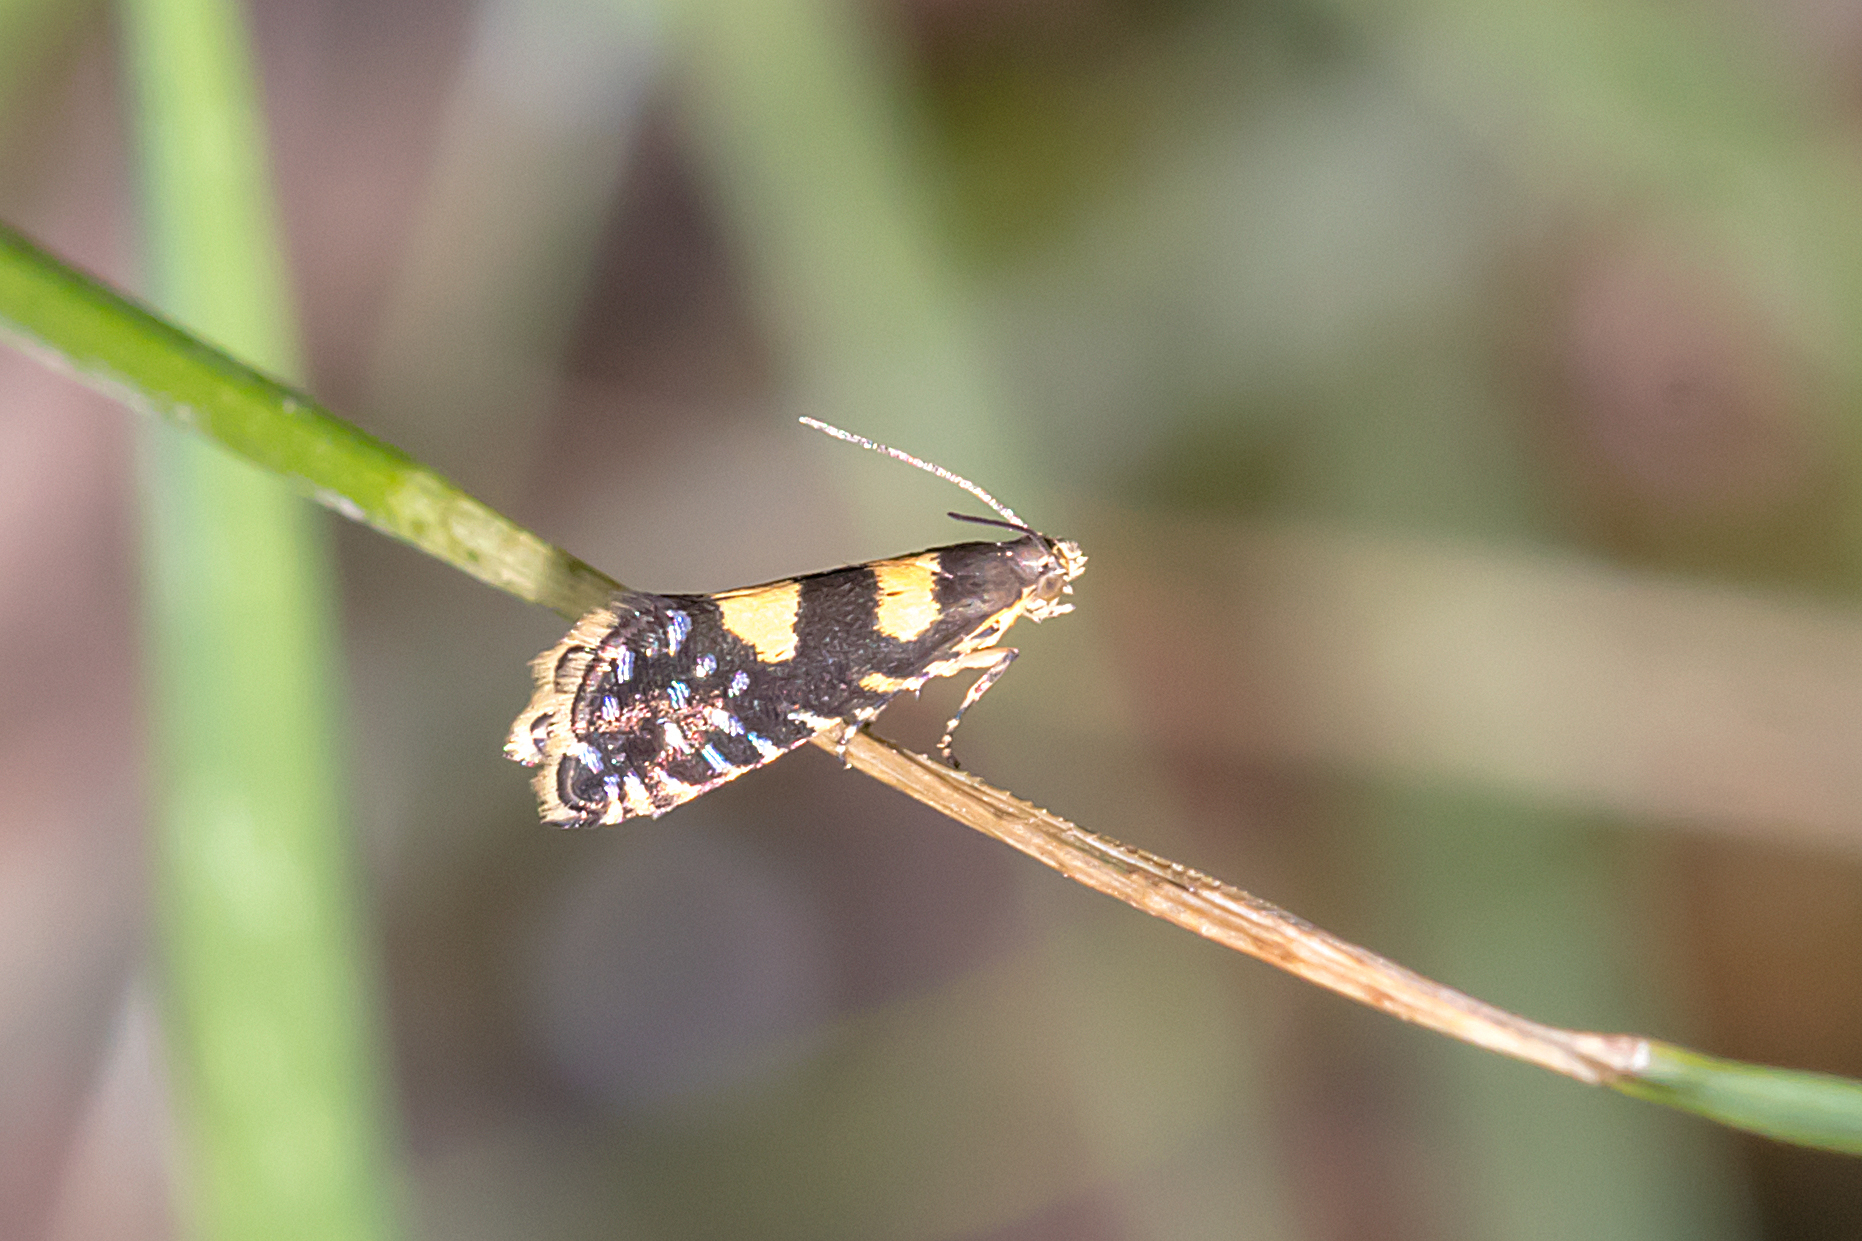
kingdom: Animalia
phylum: Arthropoda
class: Insecta
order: Lepidoptera
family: Glyphipterigidae
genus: Glyphipterix
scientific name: Glyphipterix chrysoplanetis
